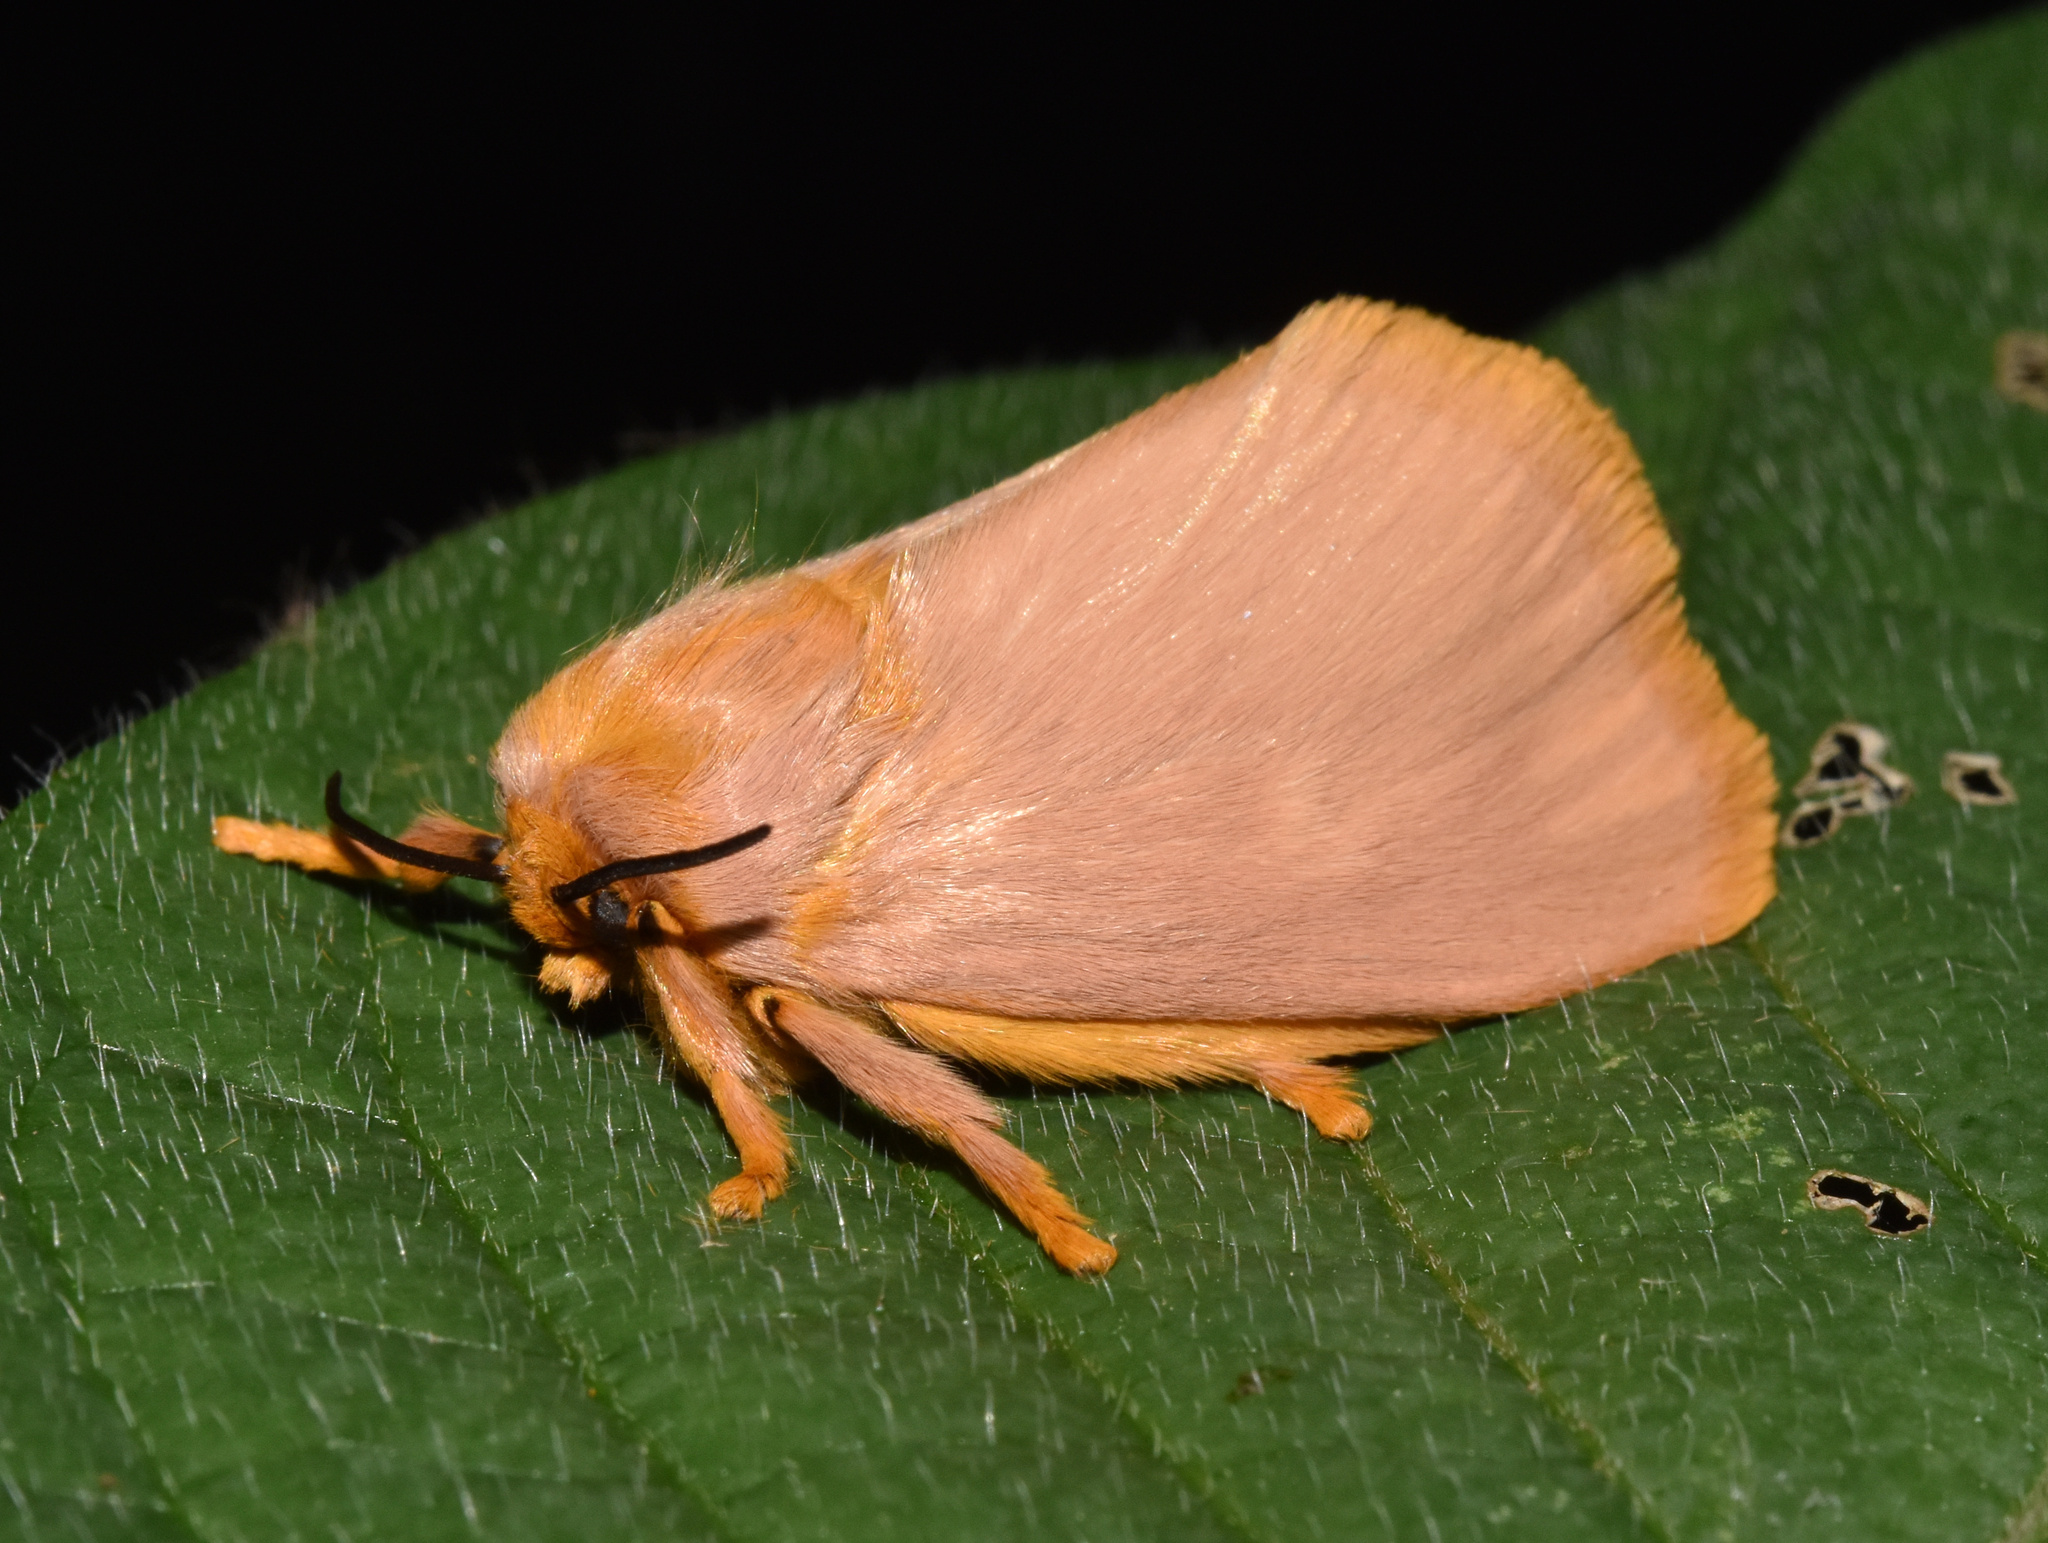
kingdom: Animalia
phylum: Arthropoda
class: Insecta
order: Lepidoptera
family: Limacodidae
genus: Chrysopoloma
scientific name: Chrysopoloma isabellina
